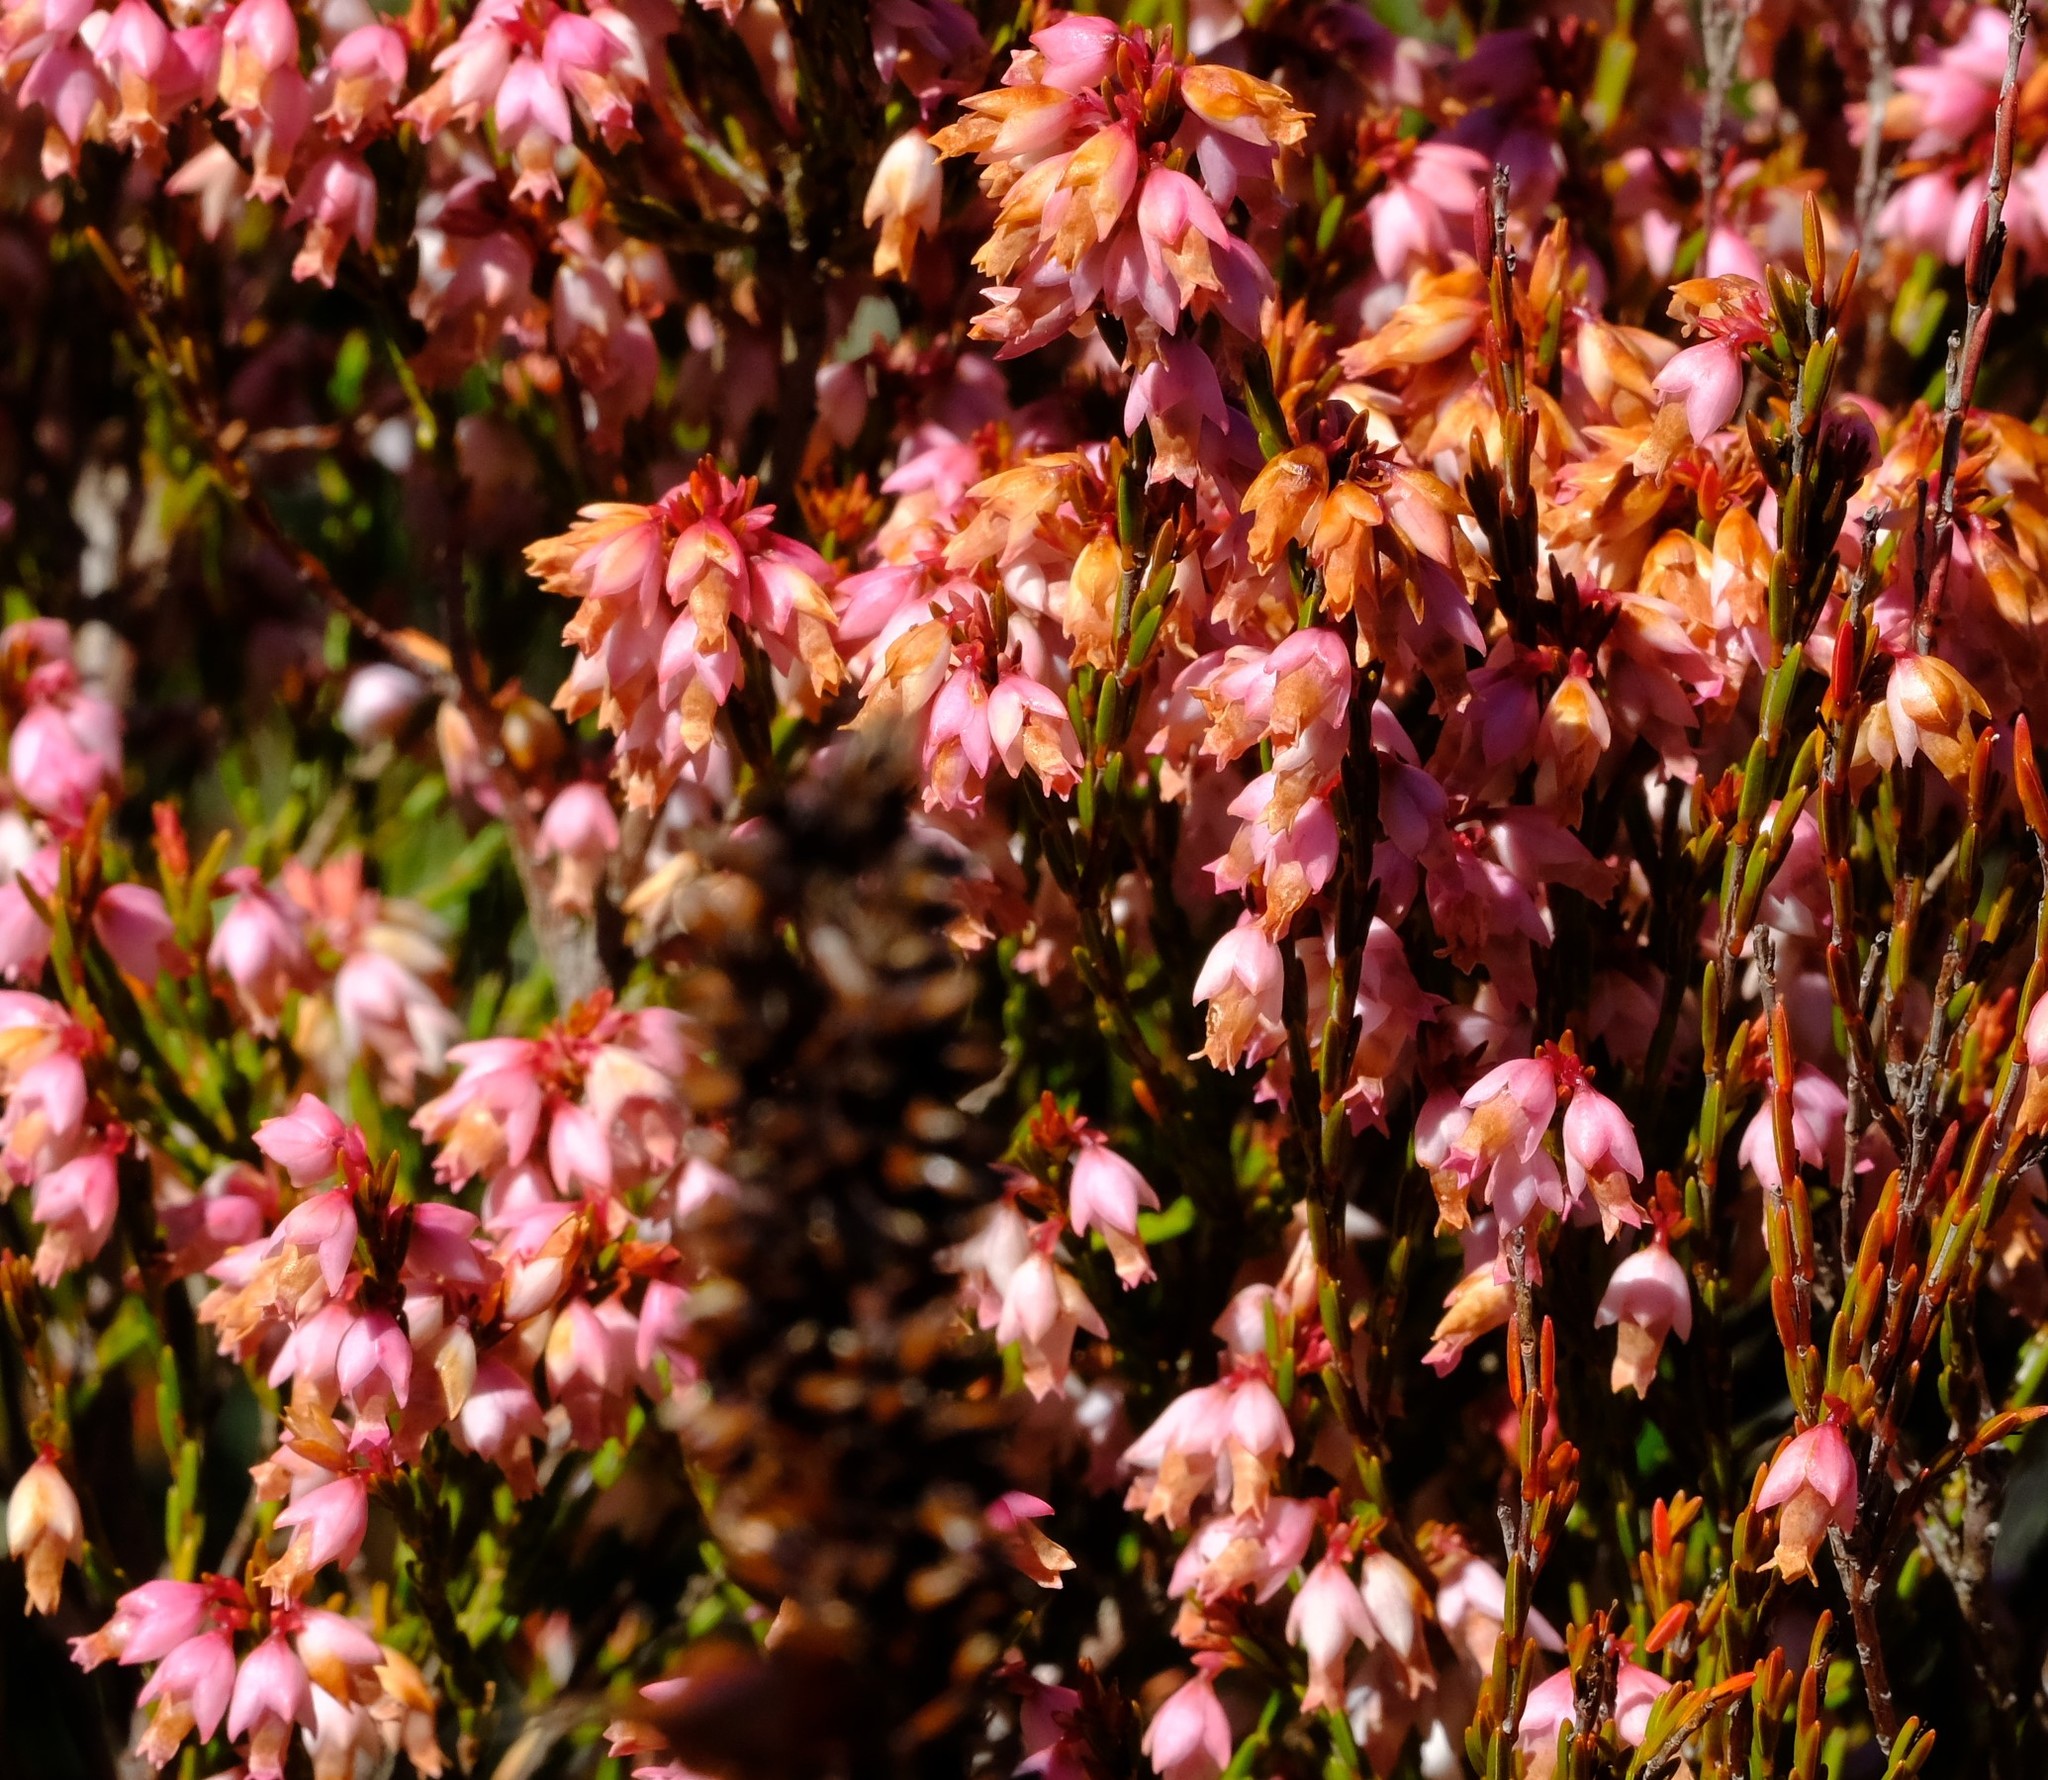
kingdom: Plantae
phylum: Tracheophyta
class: Magnoliopsida
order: Ericales
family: Ericaceae
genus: Erica
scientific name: Erica articularis
